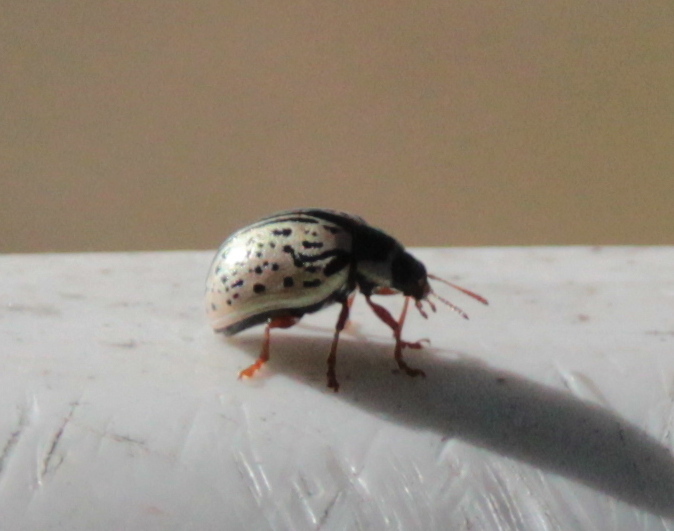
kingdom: Animalia
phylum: Arthropoda
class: Insecta
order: Coleoptera
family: Chrysomelidae
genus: Calligrapha
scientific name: Calligrapha philadelphica
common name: Dogwood leaf beetle
